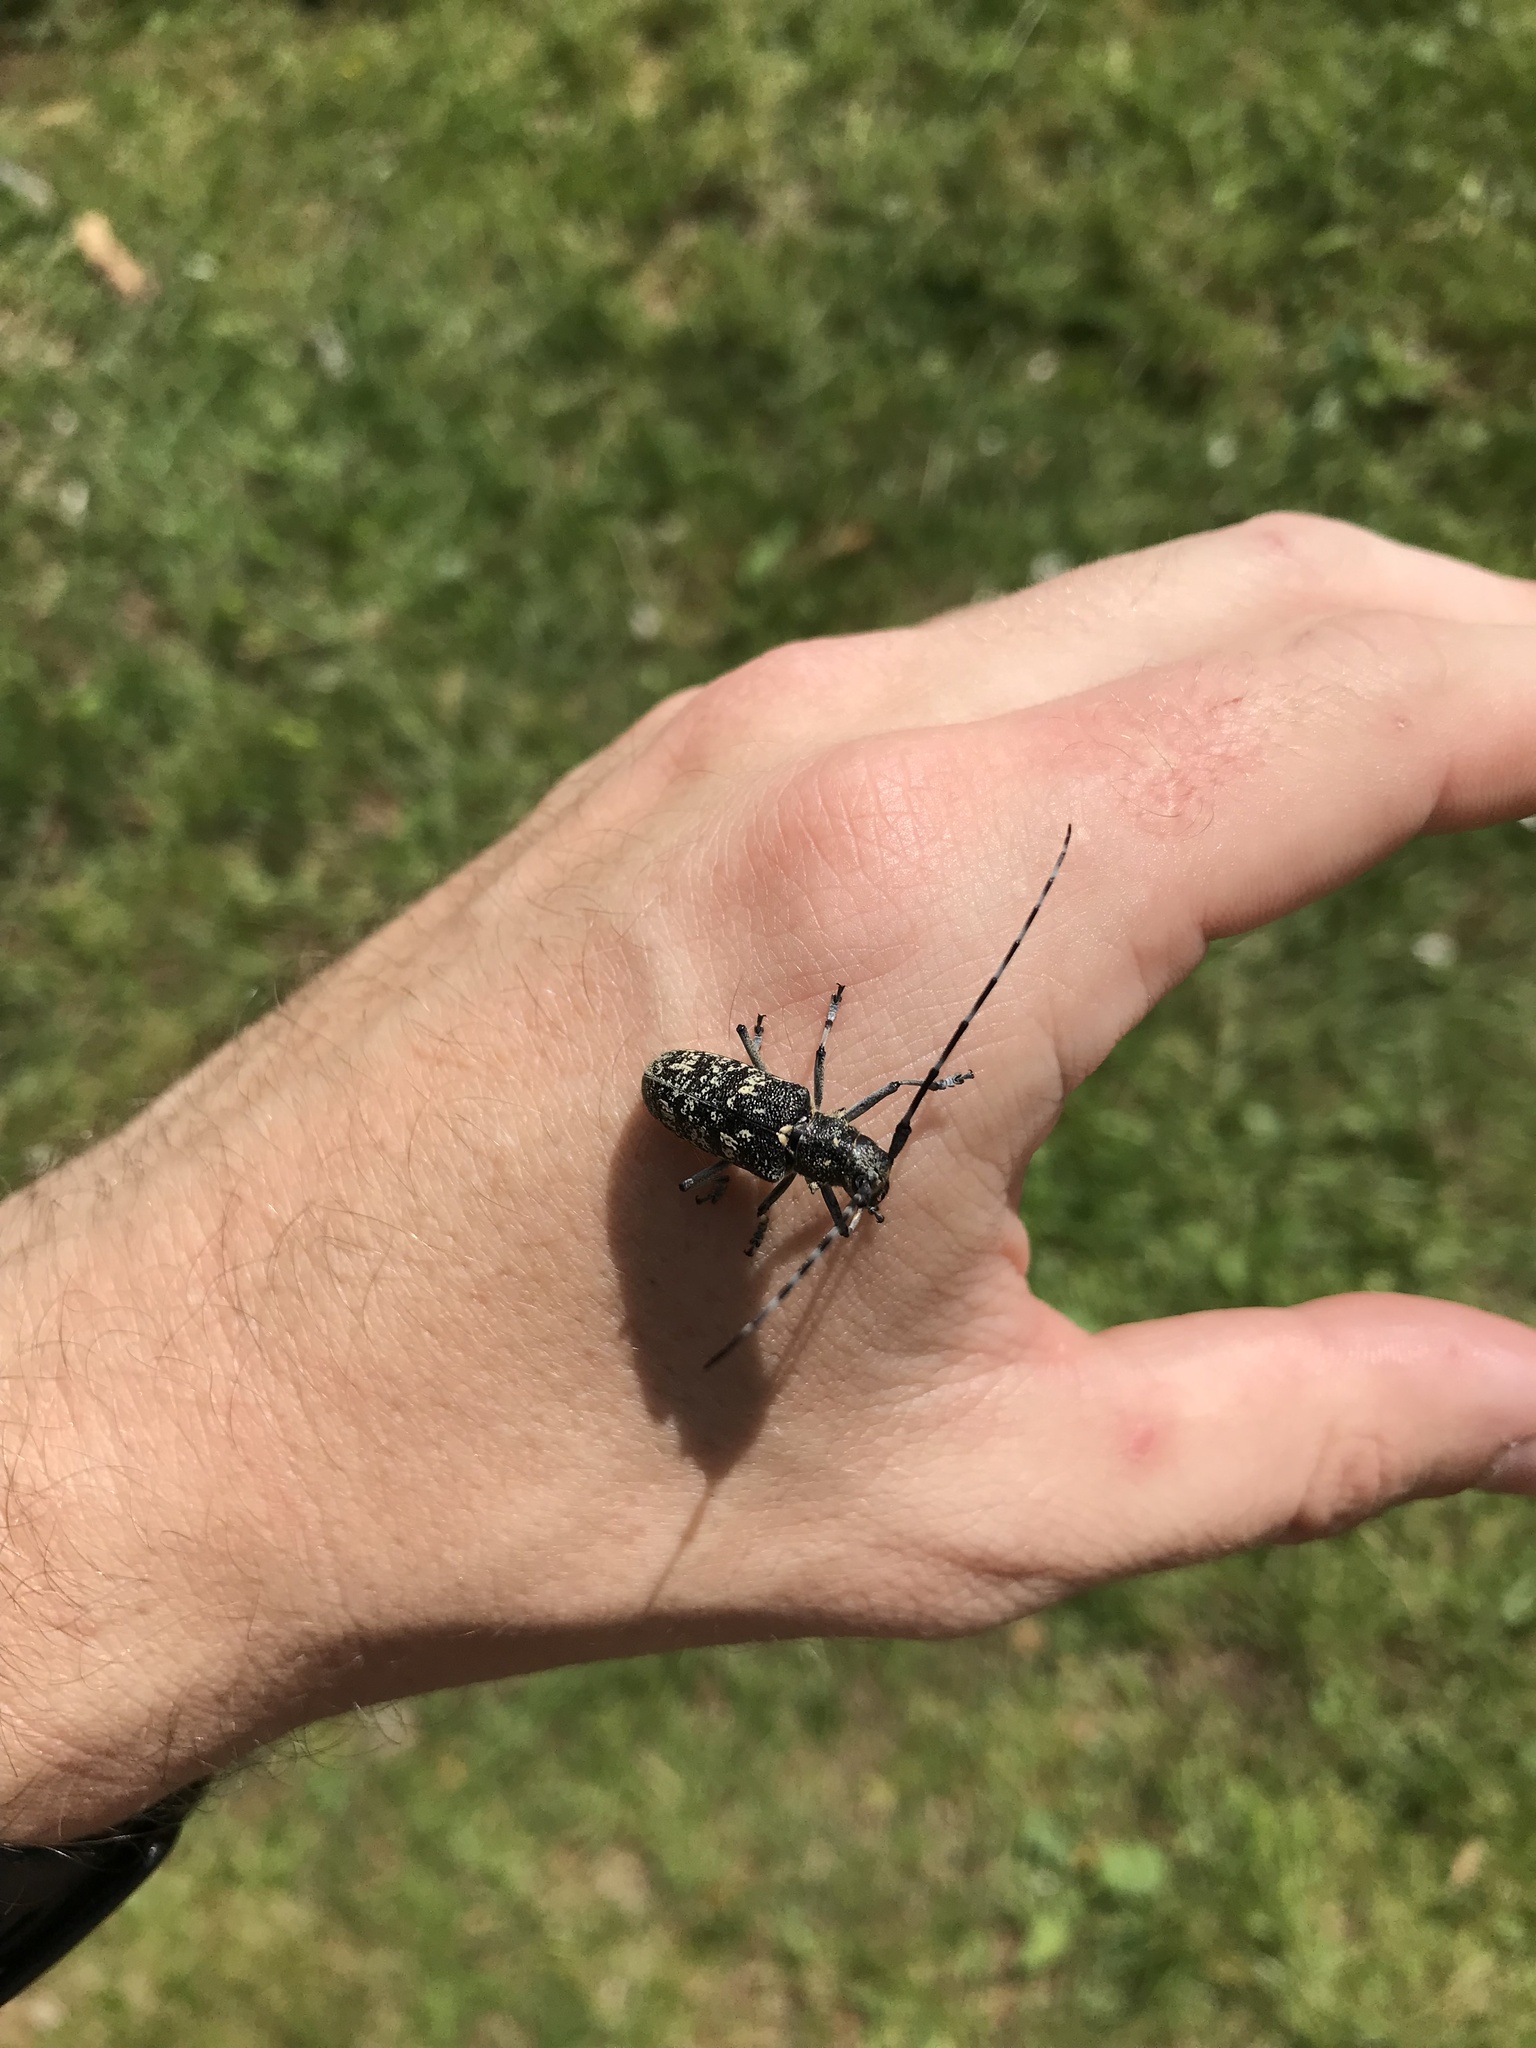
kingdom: Animalia
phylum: Arthropoda
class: Insecta
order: Coleoptera
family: Cerambycidae
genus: Monochamus
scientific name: Monochamus sutor
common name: Pine sawyer
